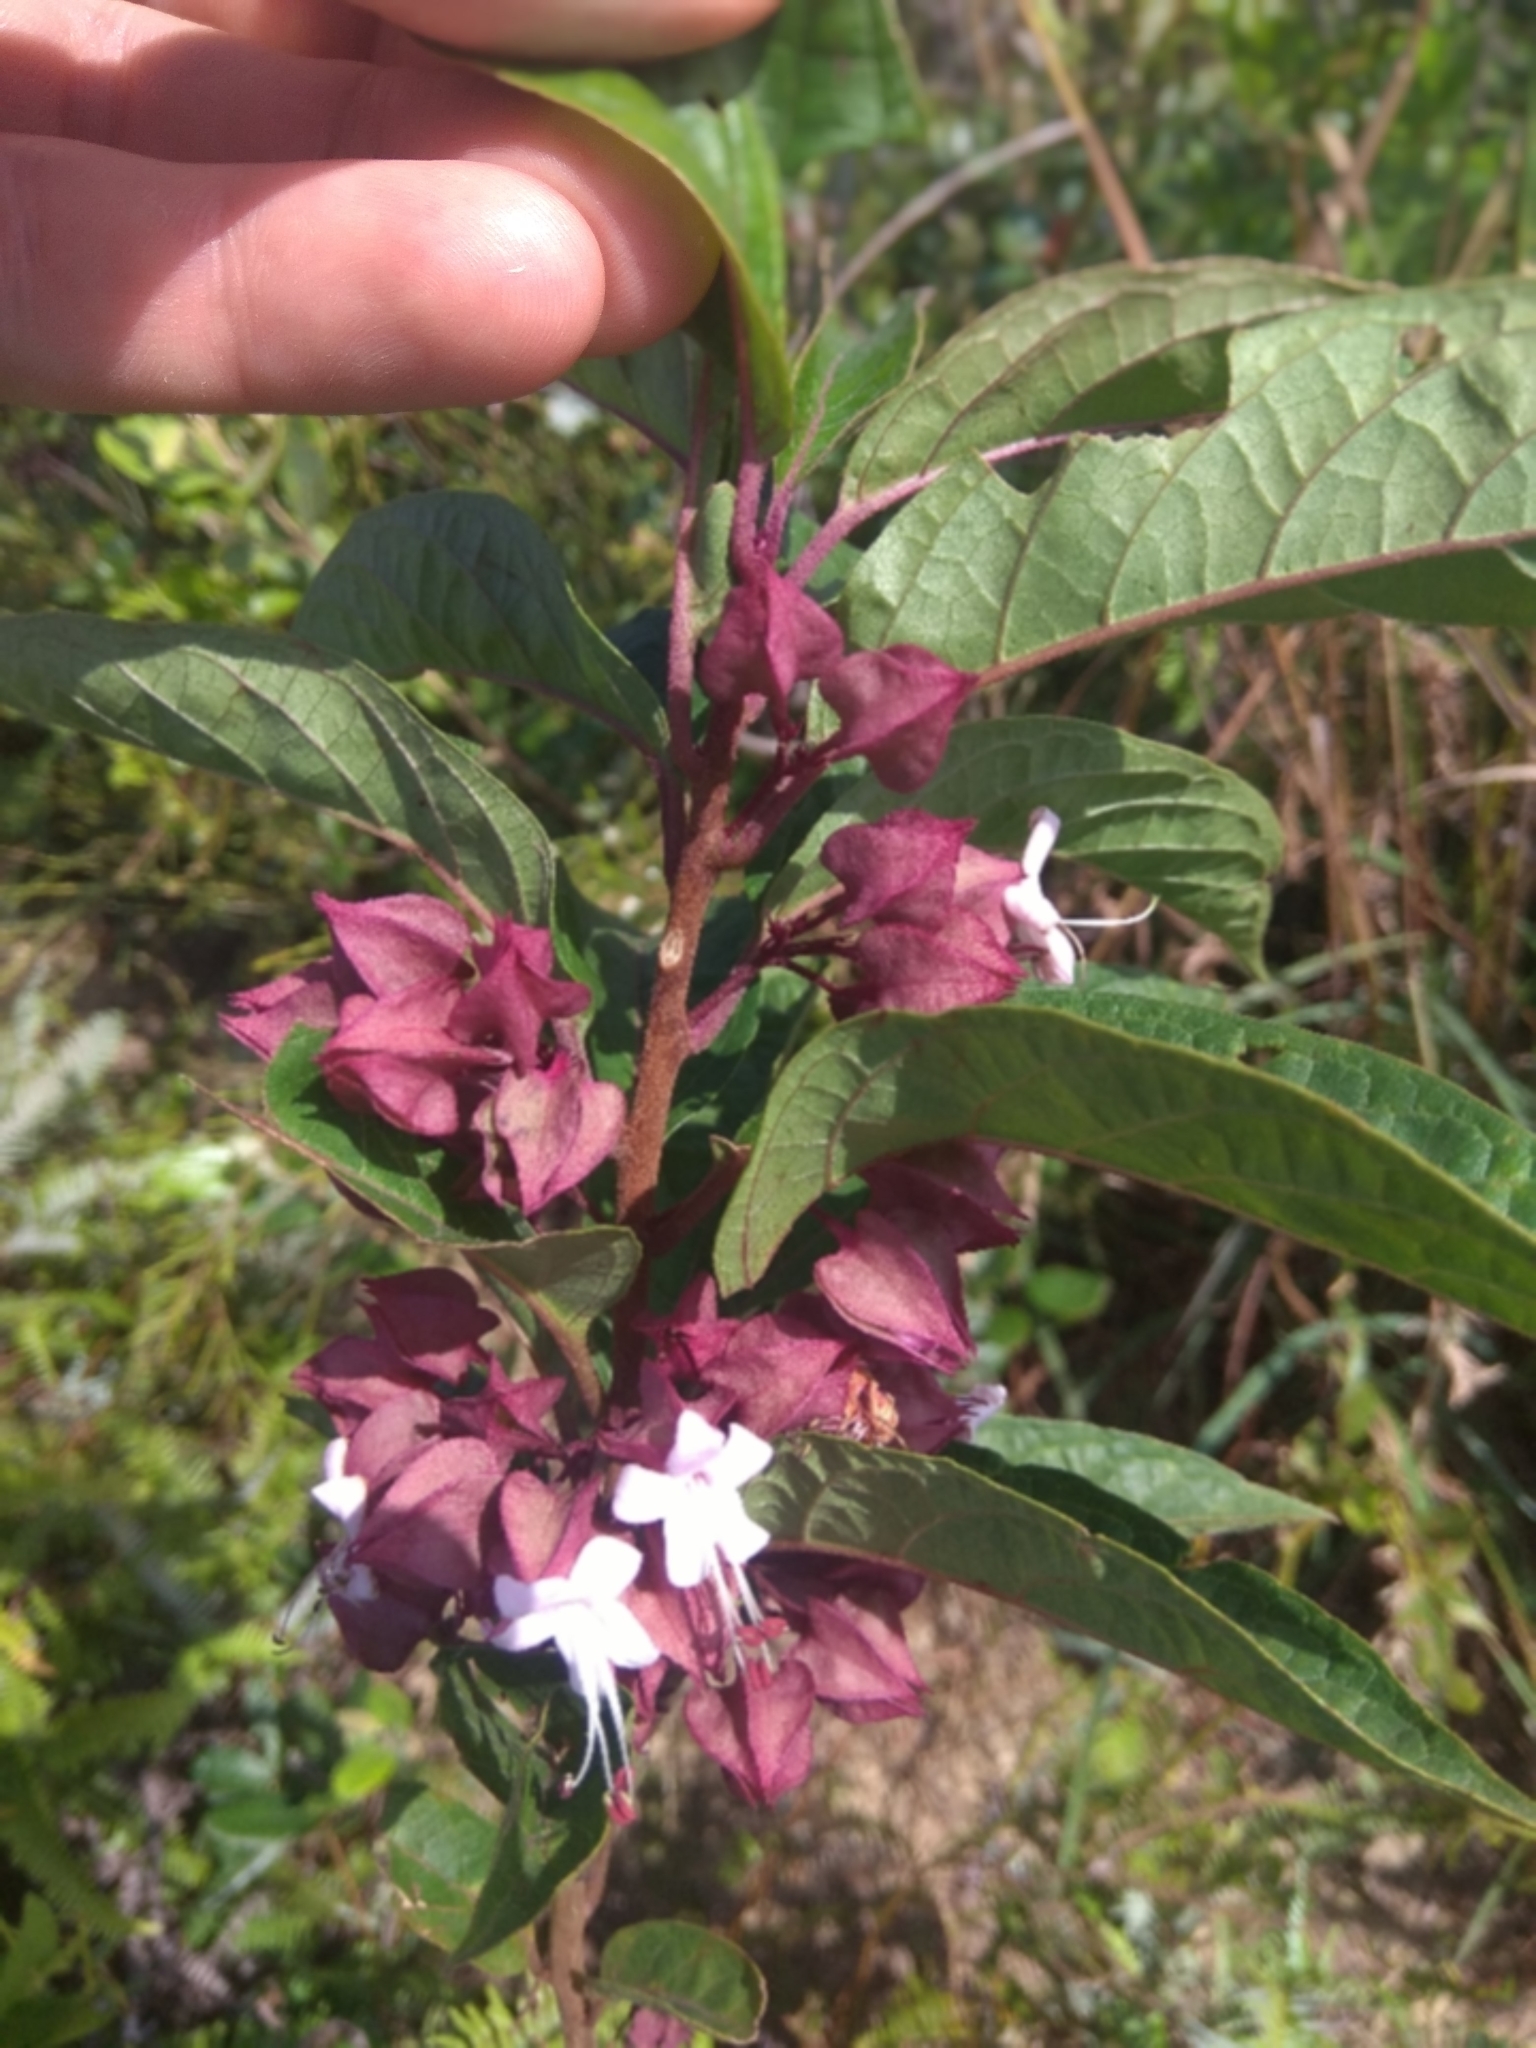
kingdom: Plantae
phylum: Tracheophyta
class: Magnoliopsida
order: Lamiales
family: Lamiaceae
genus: Clerodendrum
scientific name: Clerodendrum fortunatum
